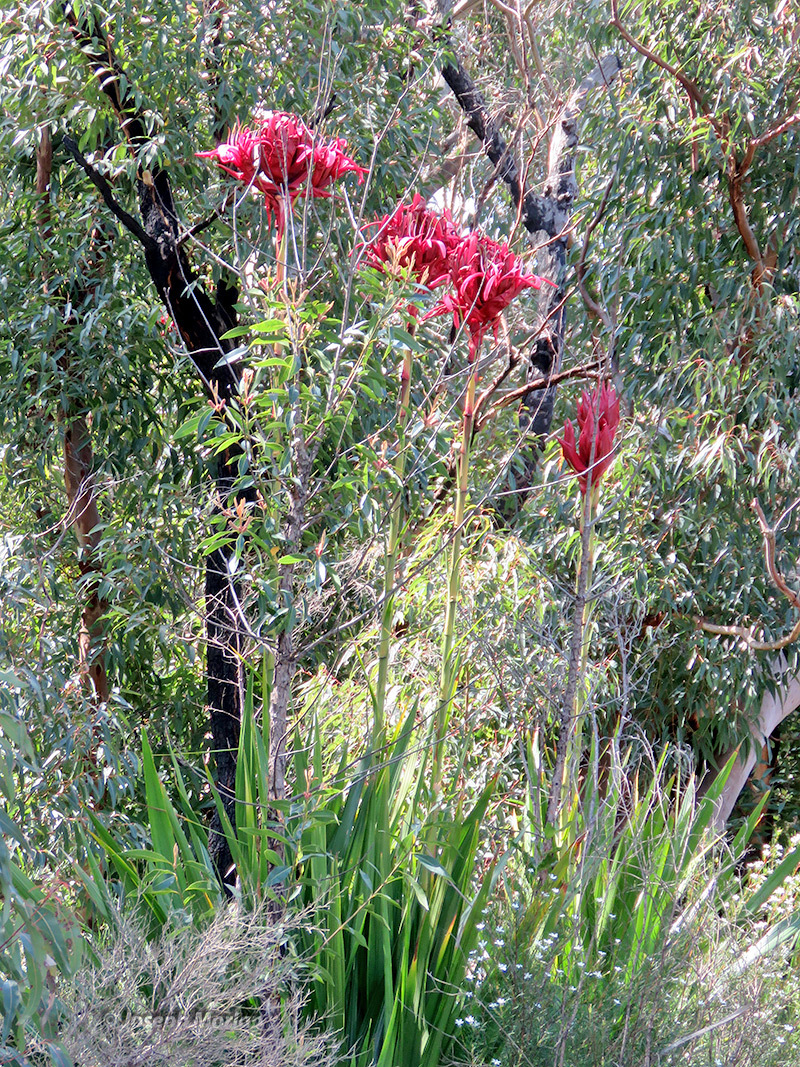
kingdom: Plantae
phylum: Tracheophyta
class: Liliopsida
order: Asparagales
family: Doryanthaceae
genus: Doryanthes
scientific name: Doryanthes excelsa
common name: Giant-lily
